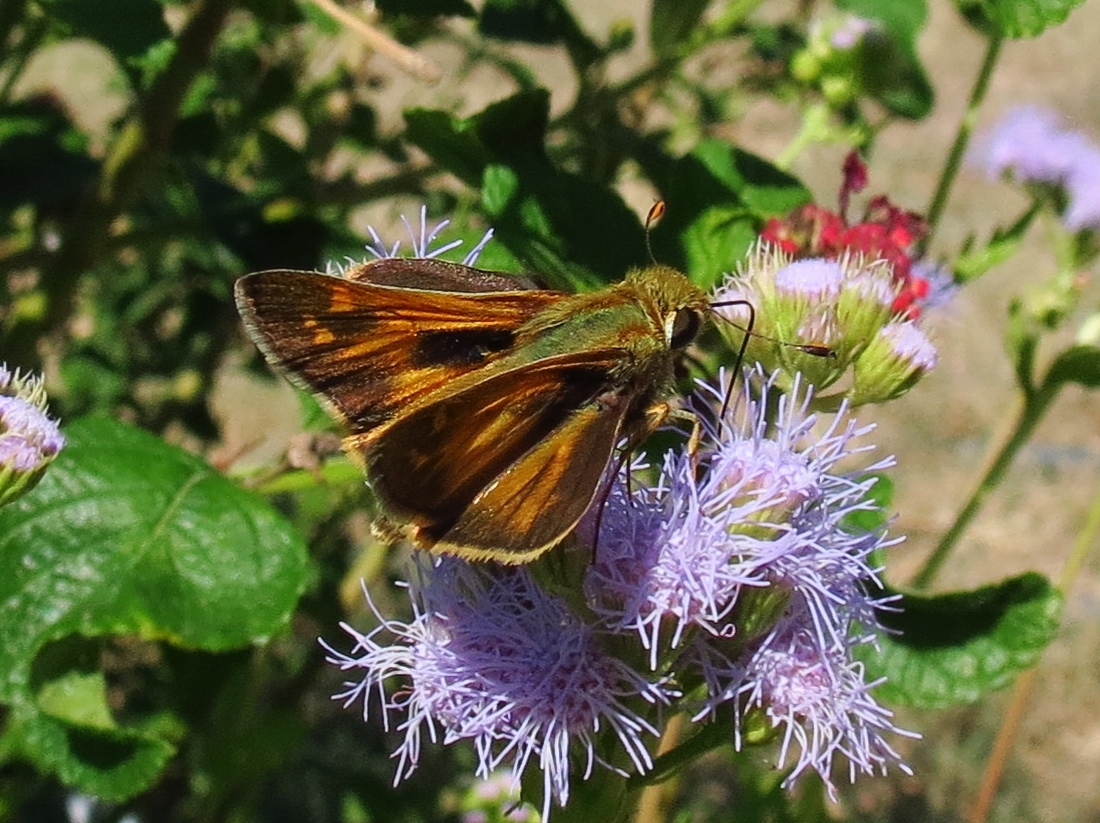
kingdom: Animalia
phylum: Arthropoda
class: Insecta
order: Lepidoptera
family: Hesperiidae
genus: Hylephila
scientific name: Hylephila phyleus
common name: Fiery skipper
